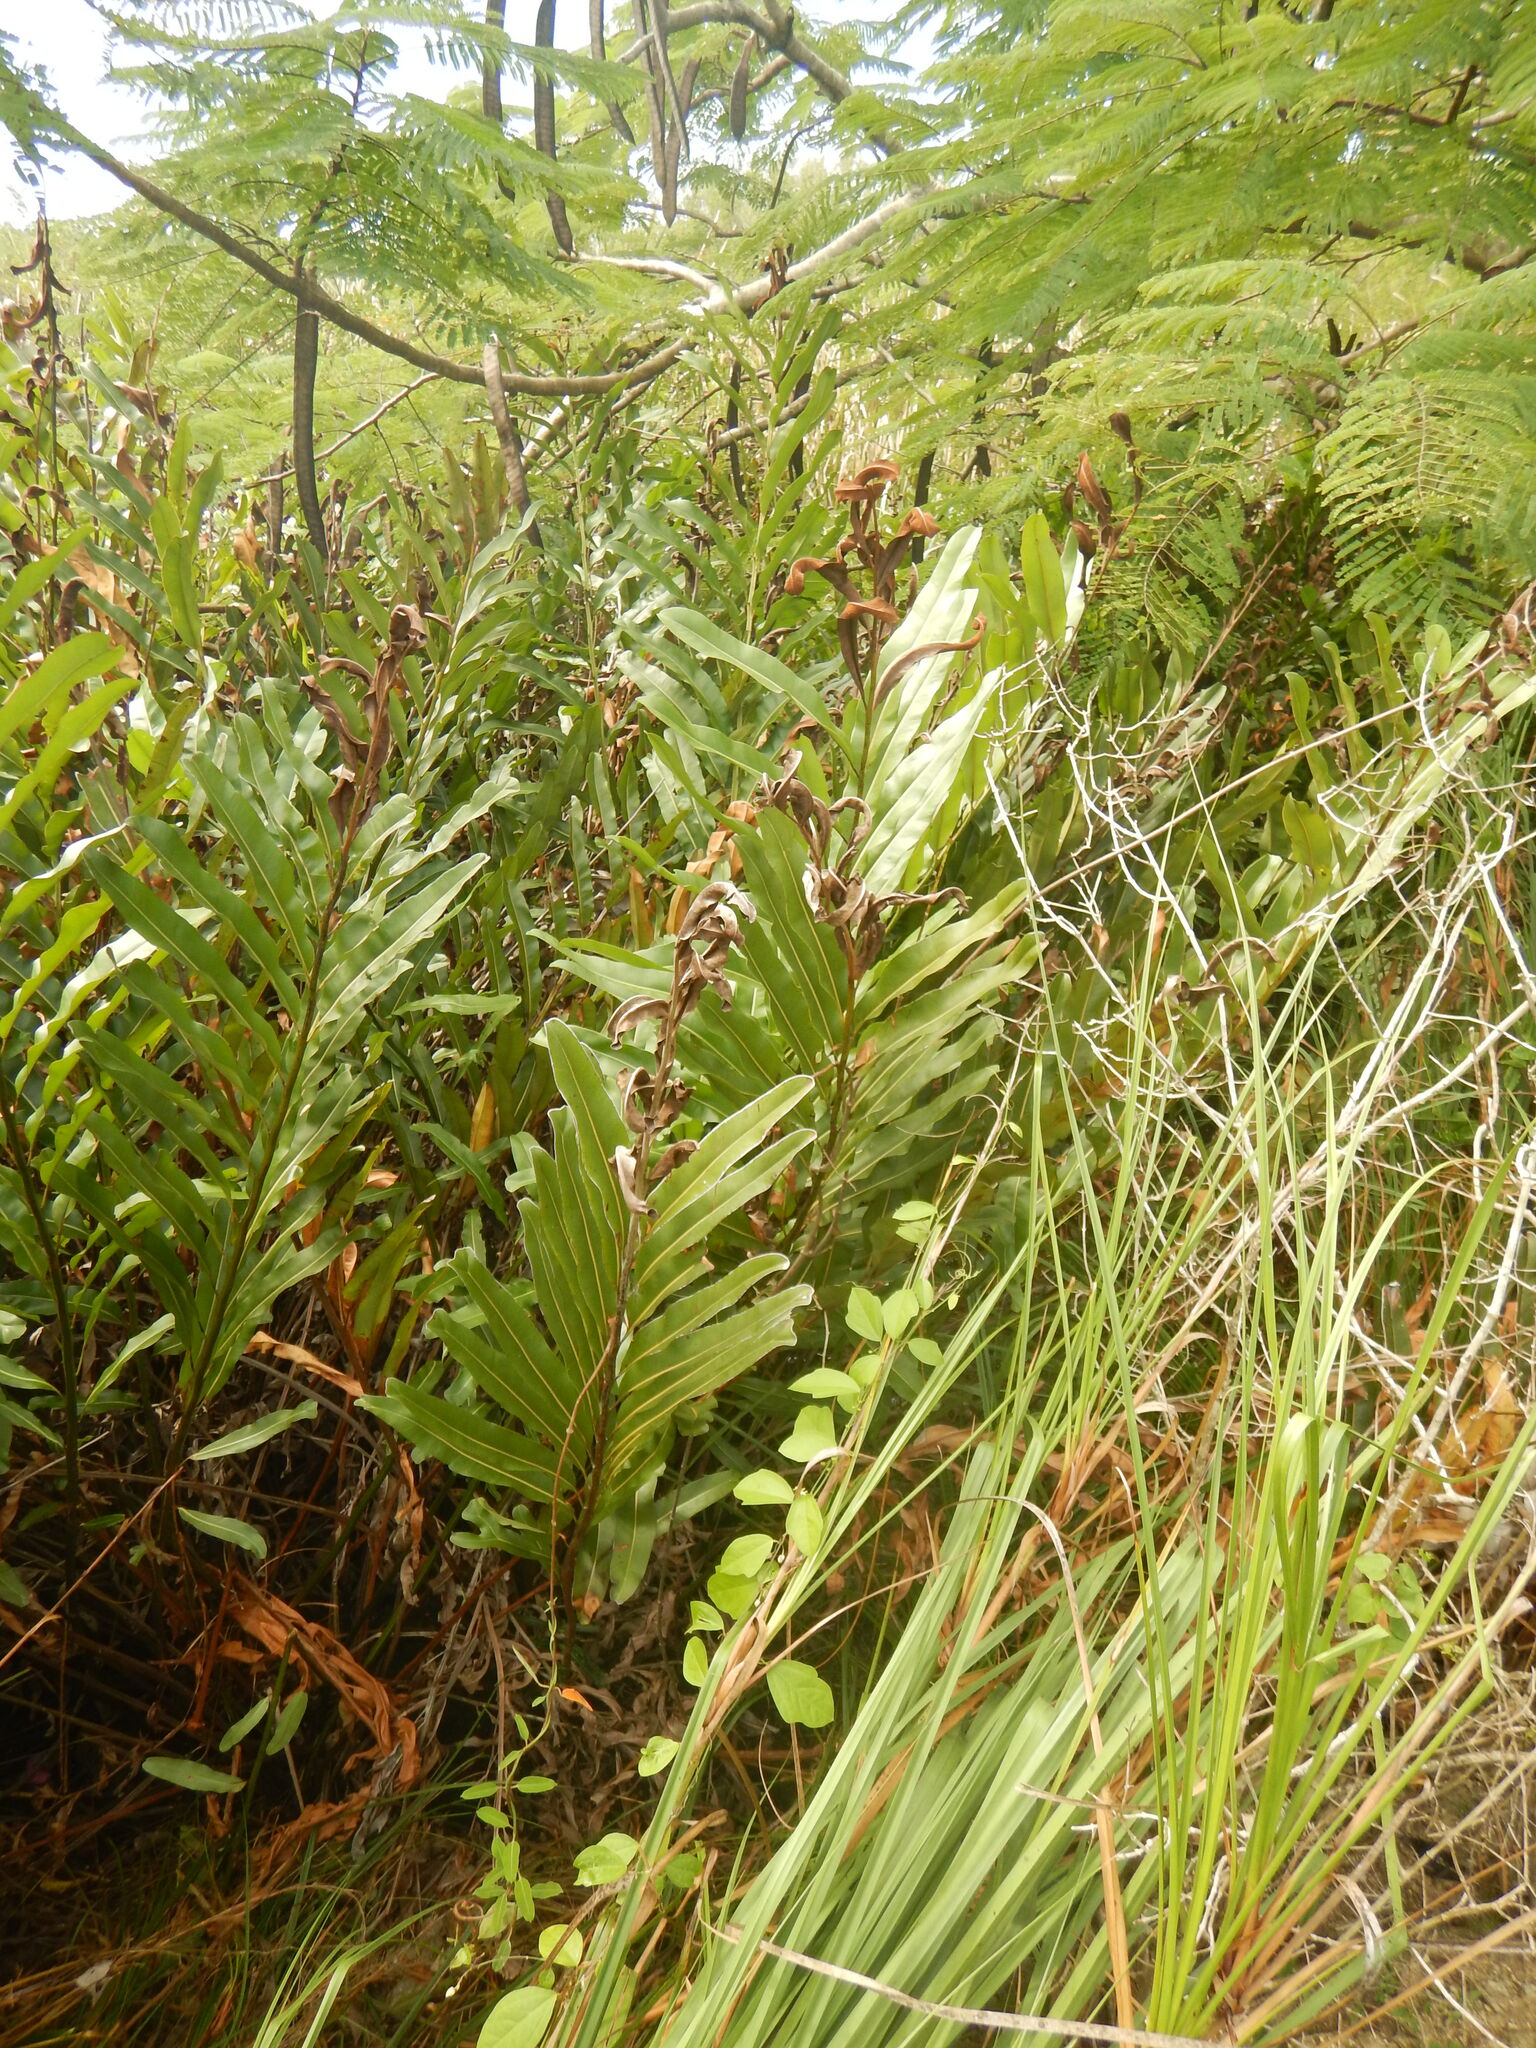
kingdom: Plantae
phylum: Tracheophyta
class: Polypodiopsida
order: Polypodiales
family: Pteridaceae
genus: Acrostichum
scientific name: Acrostichum aureum
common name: Leather fern
